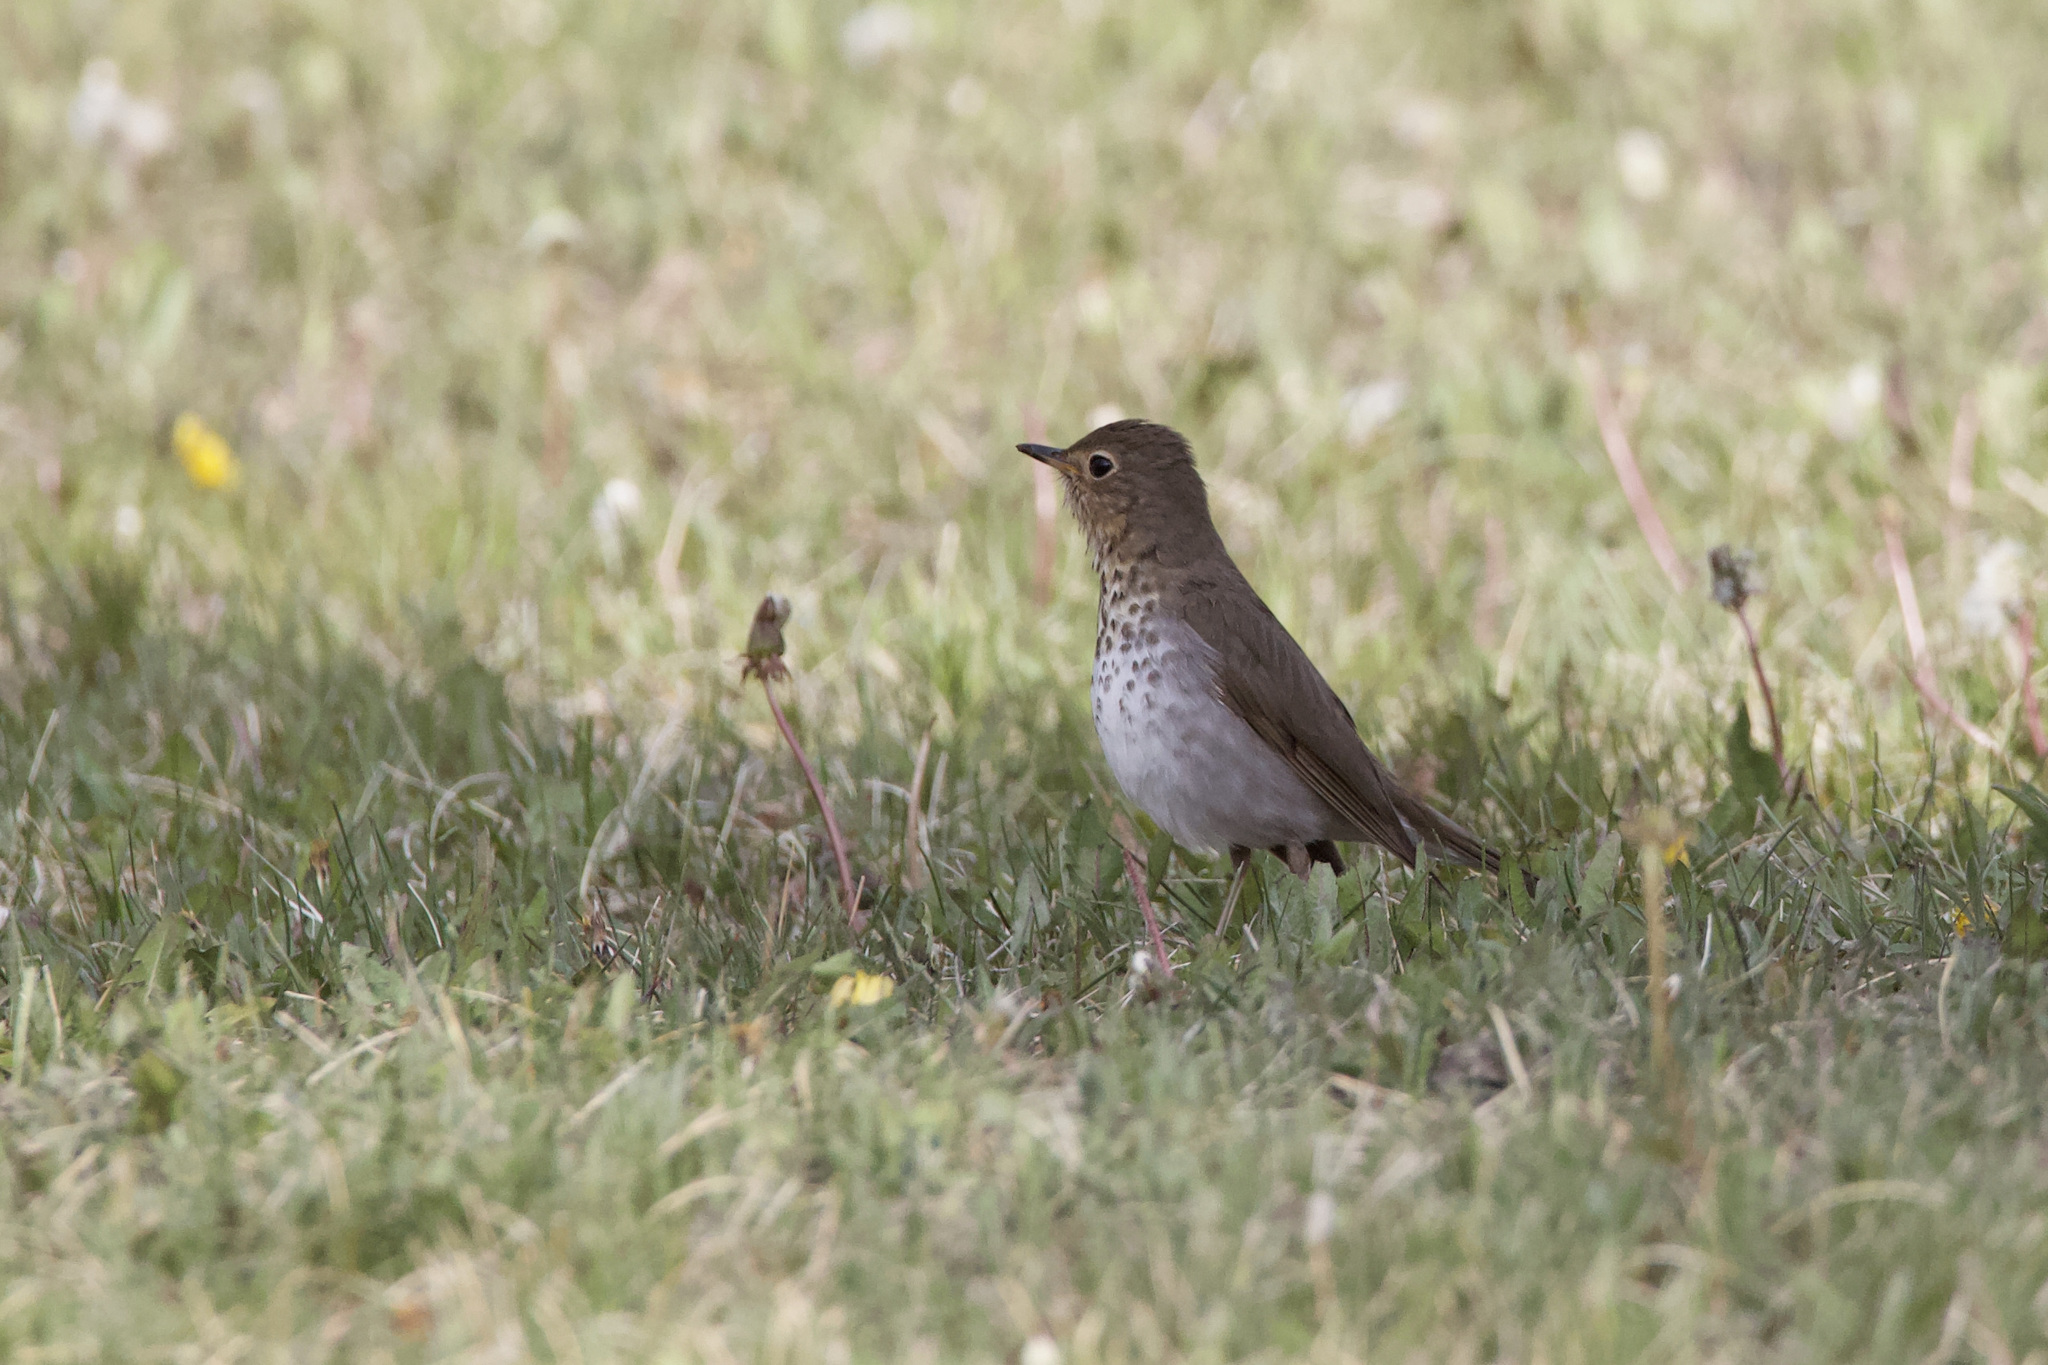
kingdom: Animalia
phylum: Chordata
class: Aves
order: Passeriformes
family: Turdidae
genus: Catharus
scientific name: Catharus ustulatus
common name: Swainson's thrush
